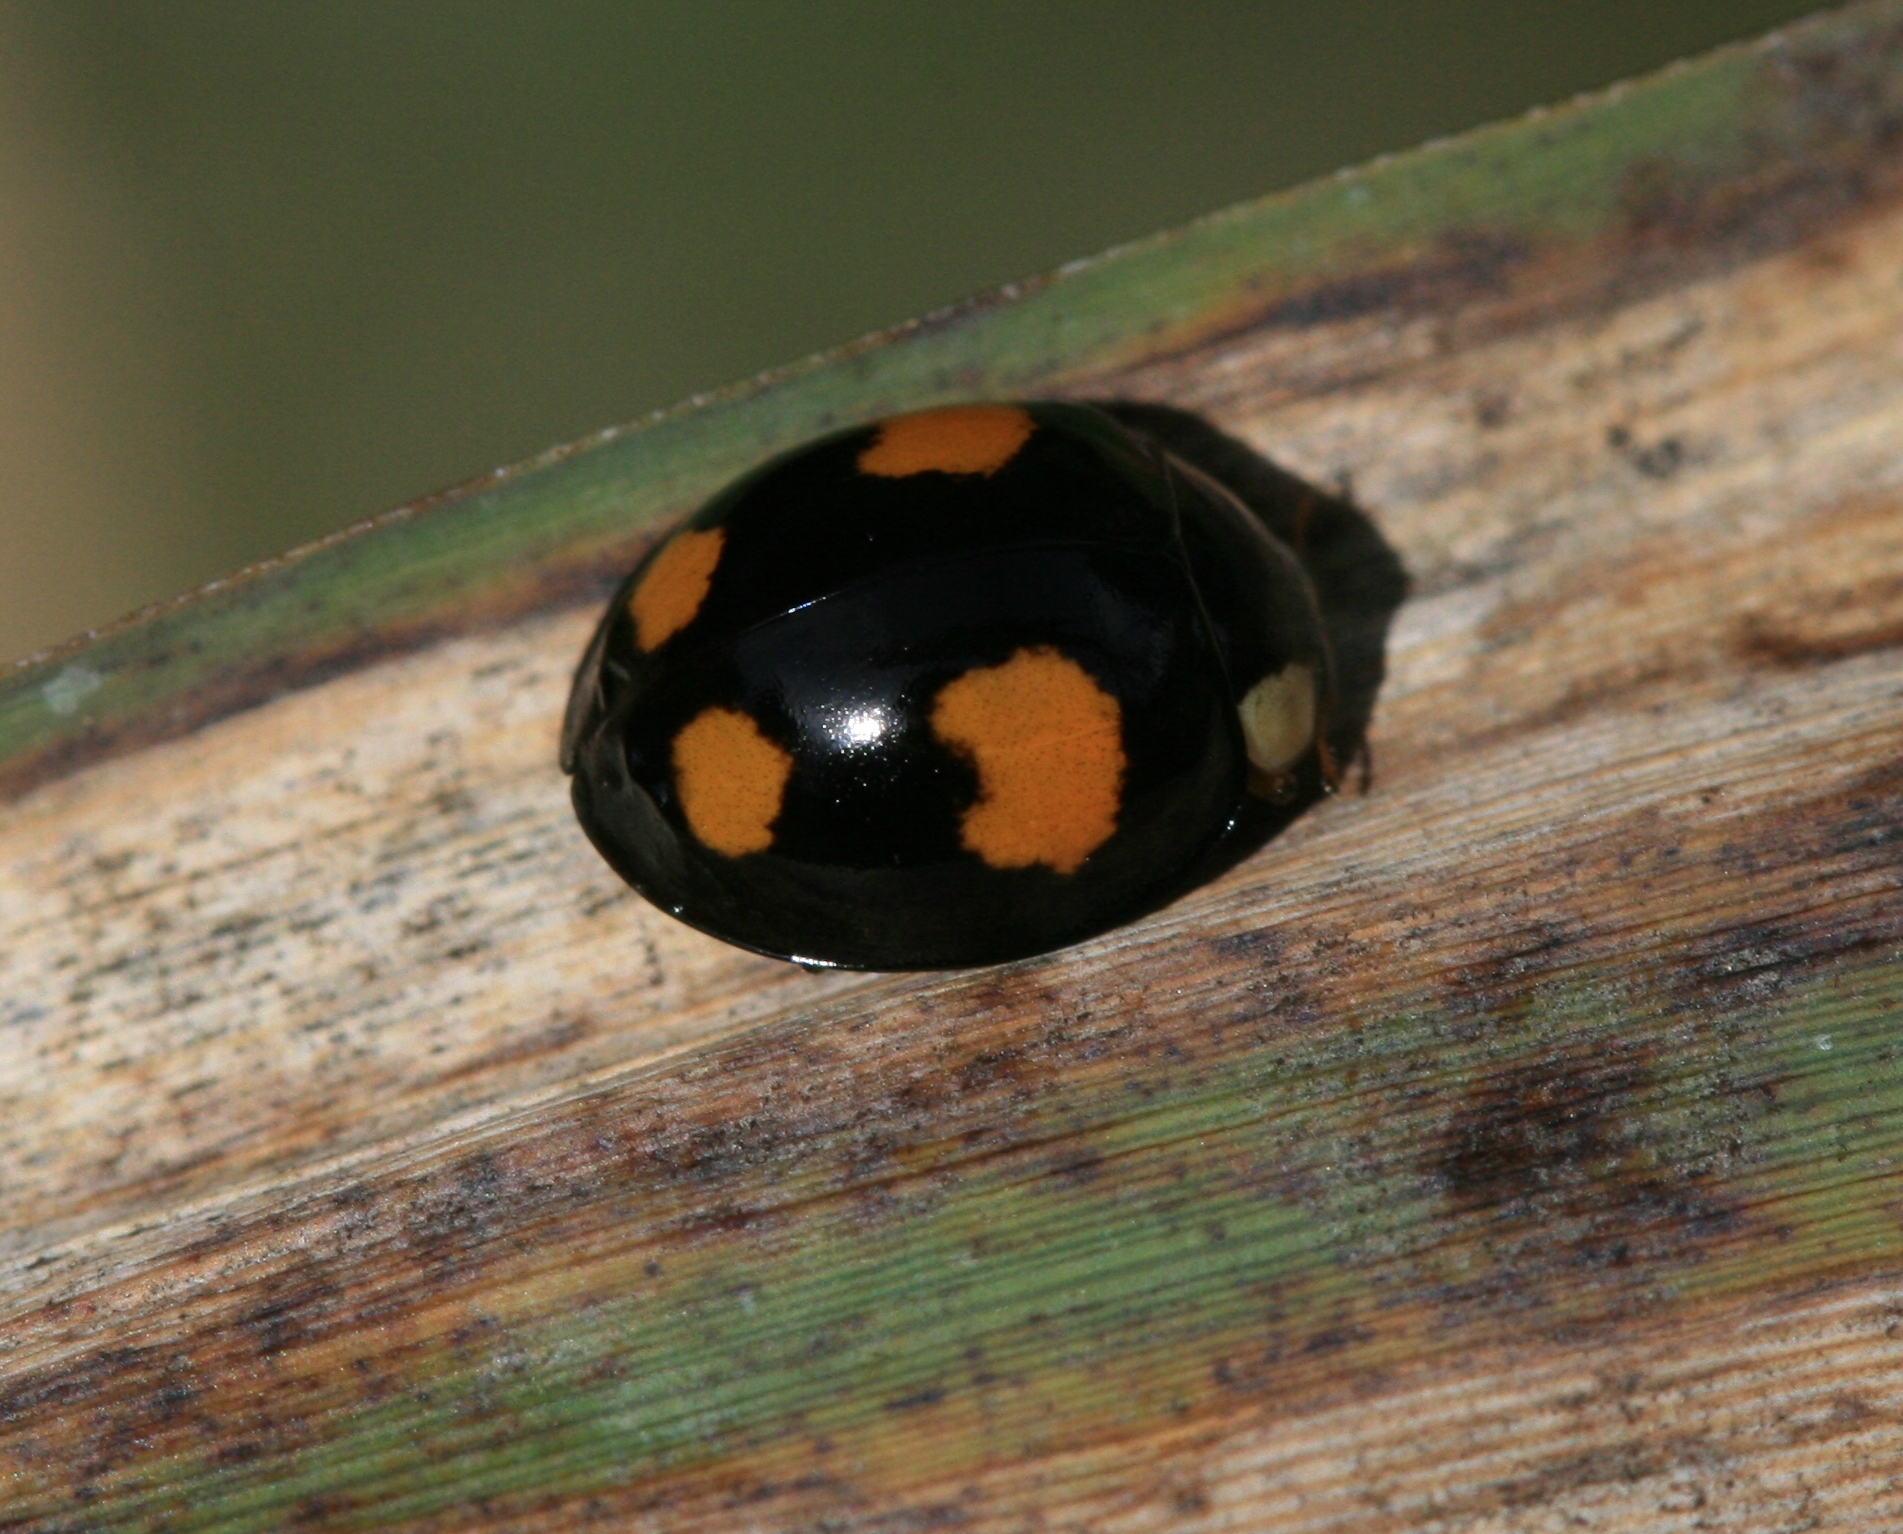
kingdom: Animalia
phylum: Arthropoda
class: Insecta
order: Coleoptera
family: Coccinellidae
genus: Harmonia
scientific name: Harmonia axyridis
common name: Harlequin ladybird
